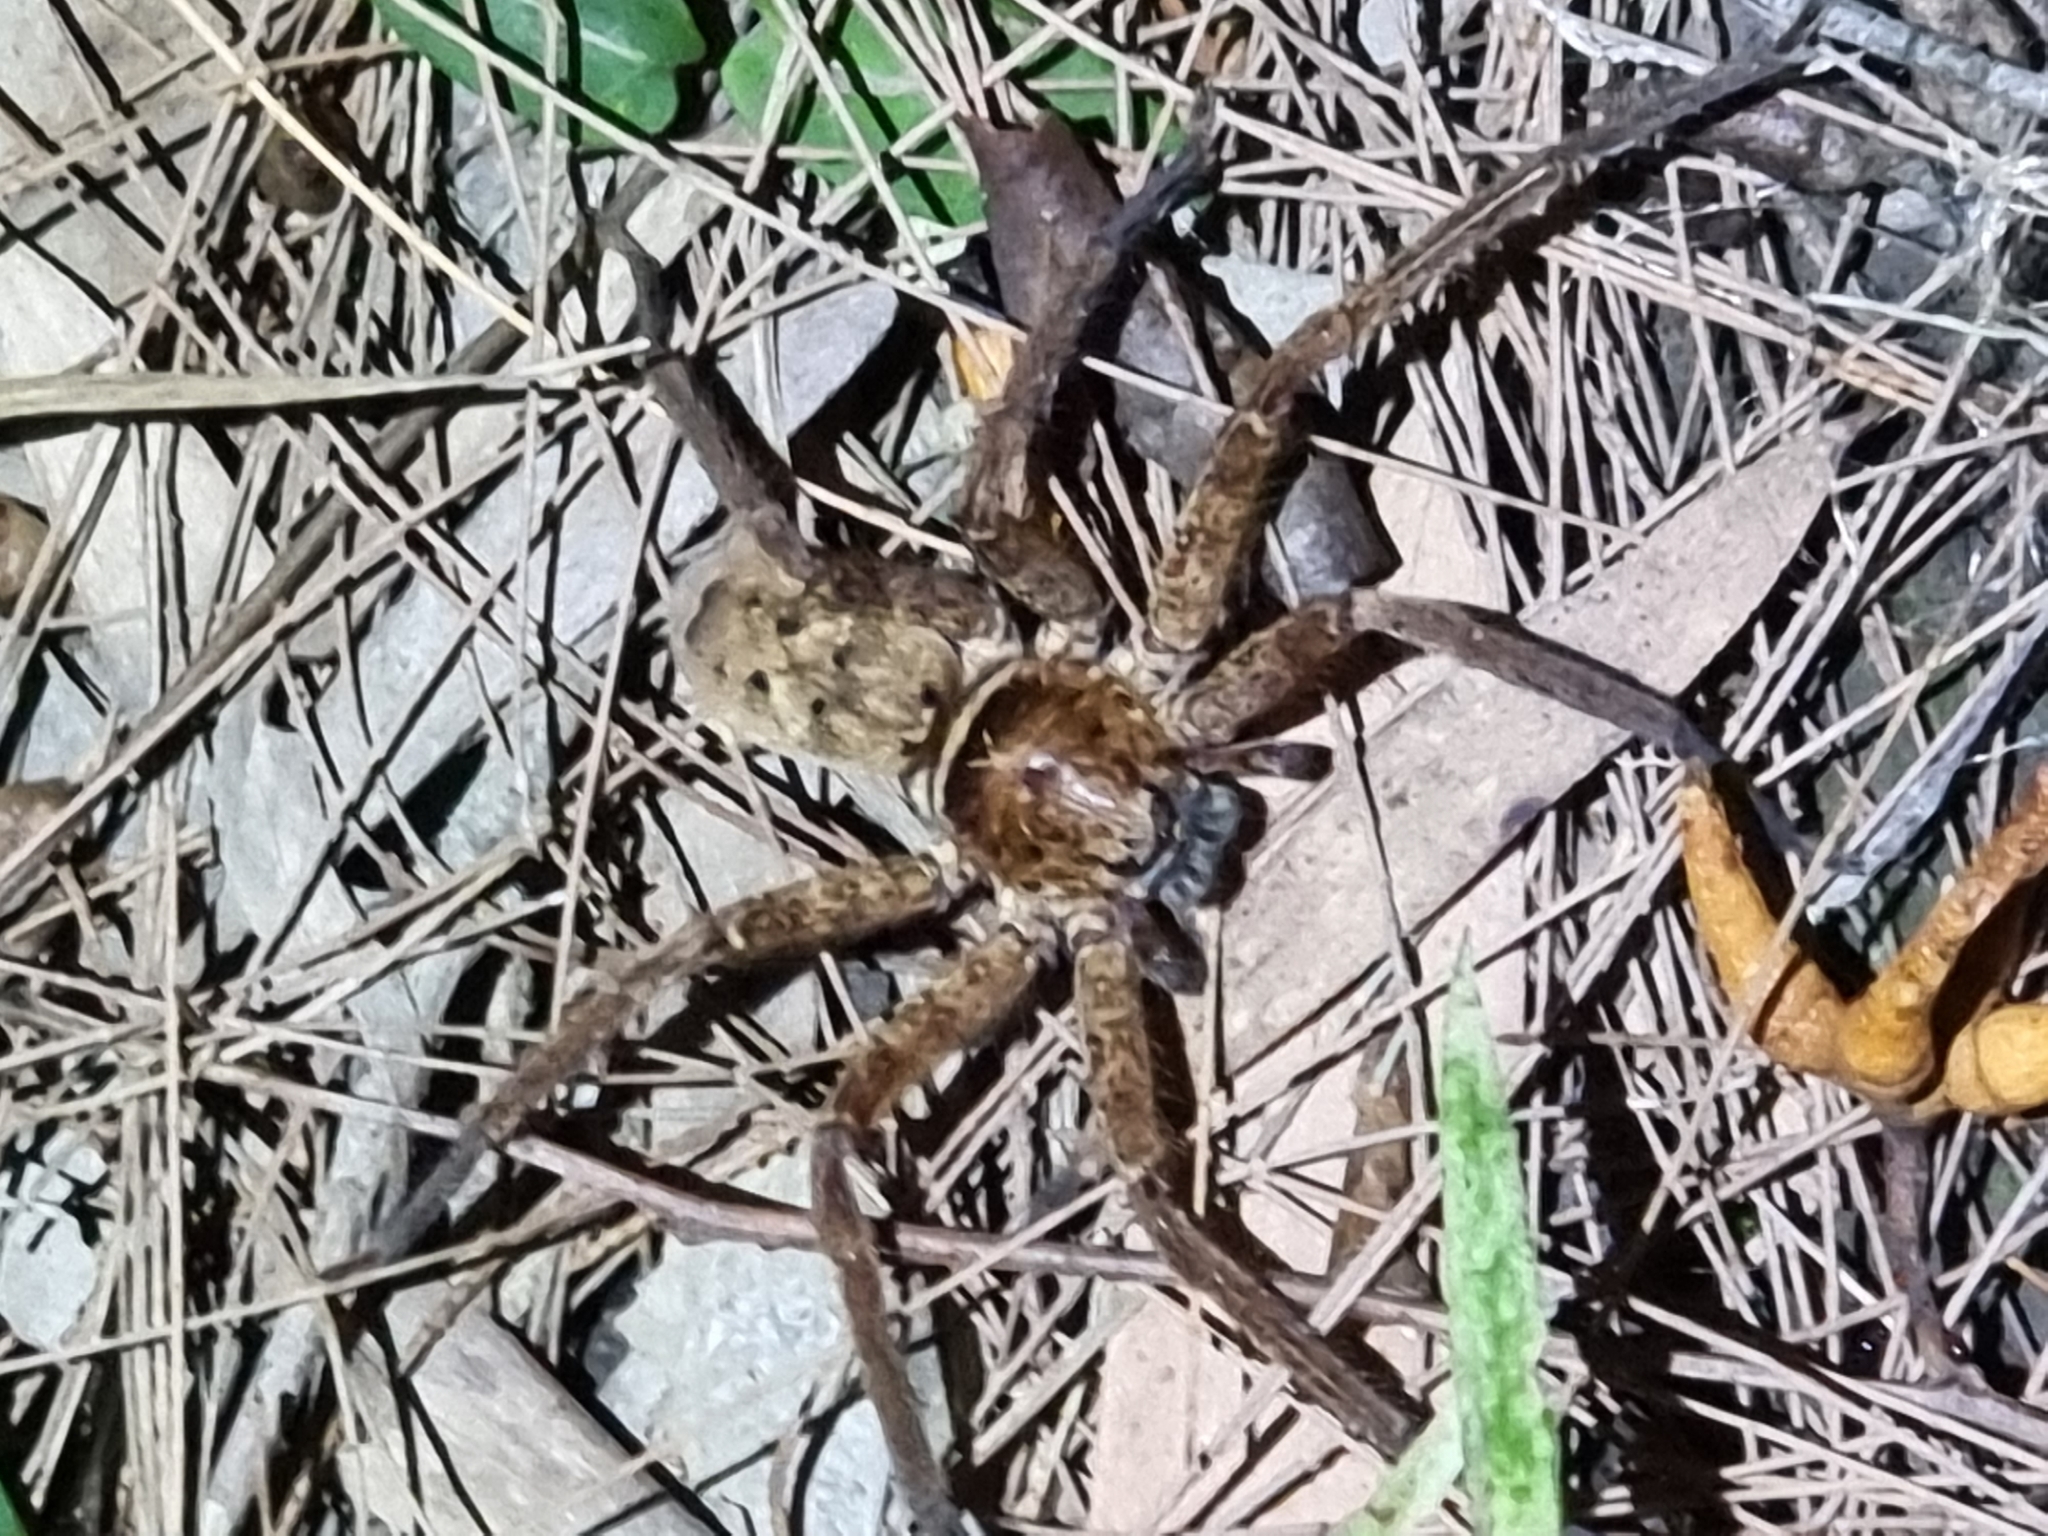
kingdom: Animalia
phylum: Arthropoda
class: Arachnida
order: Araneae
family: Sparassidae
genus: Heteropoda
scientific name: Heteropoda jugulans
